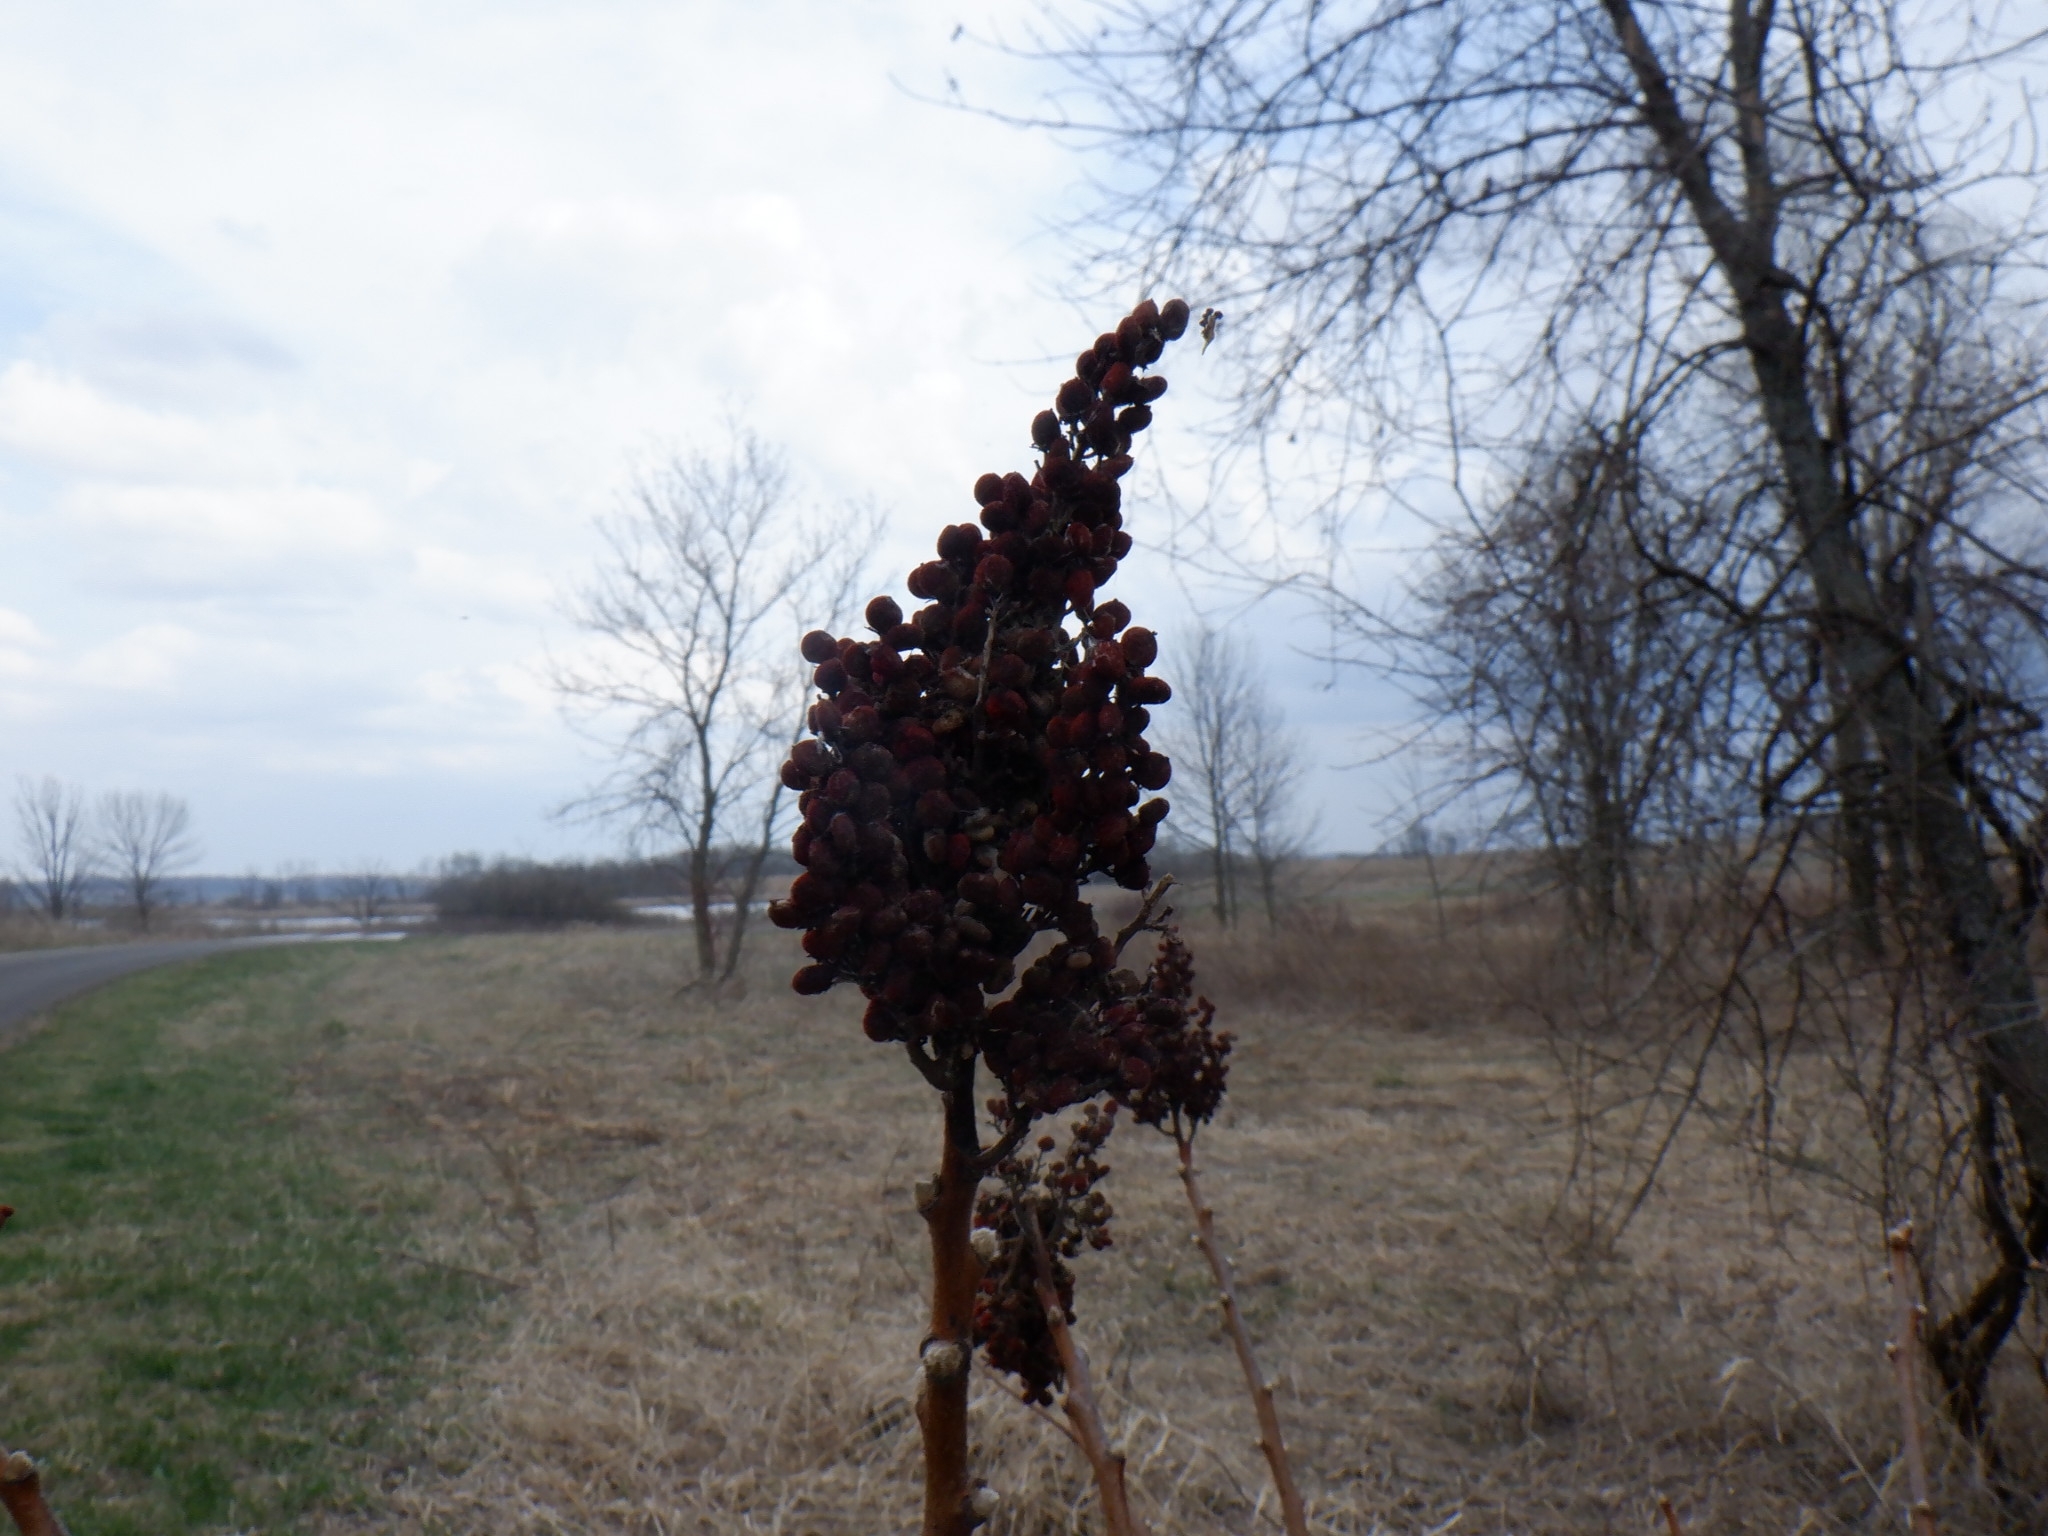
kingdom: Plantae
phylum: Tracheophyta
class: Magnoliopsida
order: Sapindales
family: Anacardiaceae
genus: Rhus
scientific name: Rhus glabra
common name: Scarlet sumac
